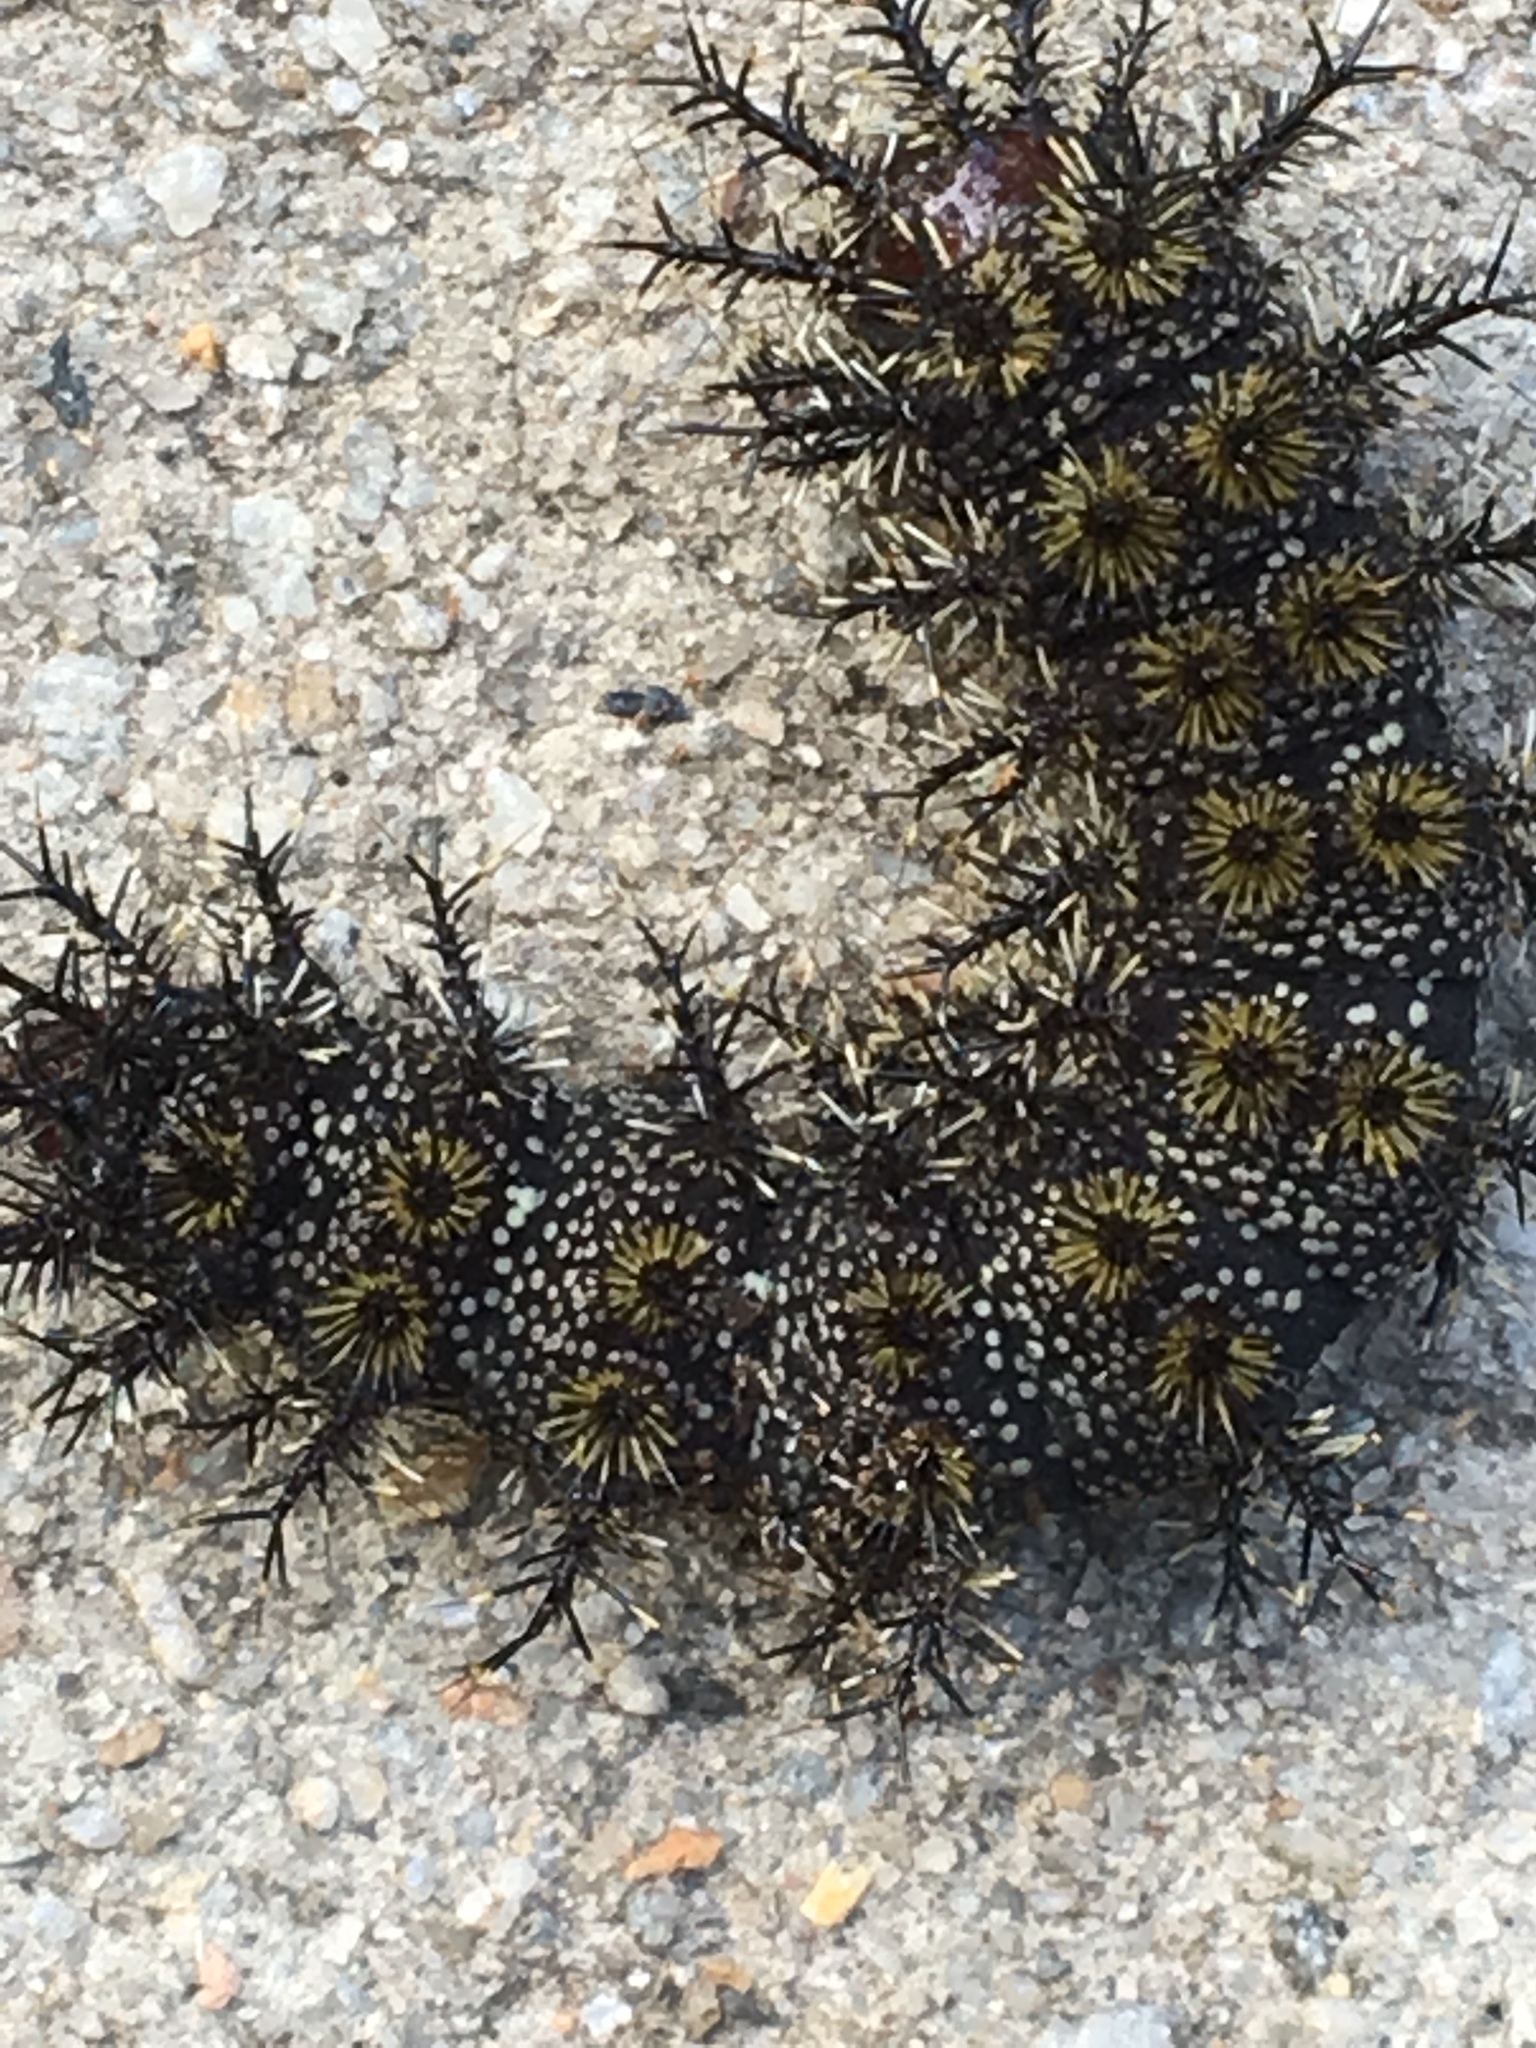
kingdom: Animalia
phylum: Arthropoda
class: Insecta
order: Lepidoptera
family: Saturniidae
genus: Hemileuca
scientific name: Hemileuca maia
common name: Eastern buckmoth
